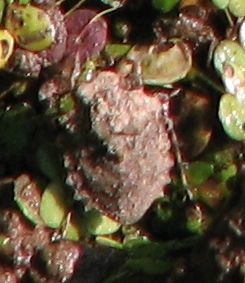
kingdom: Animalia
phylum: Arthropoda
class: Insecta
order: Hemiptera
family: Gelastocoridae
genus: Gelastocoris
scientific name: Gelastocoris oculatus
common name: Toad bug
